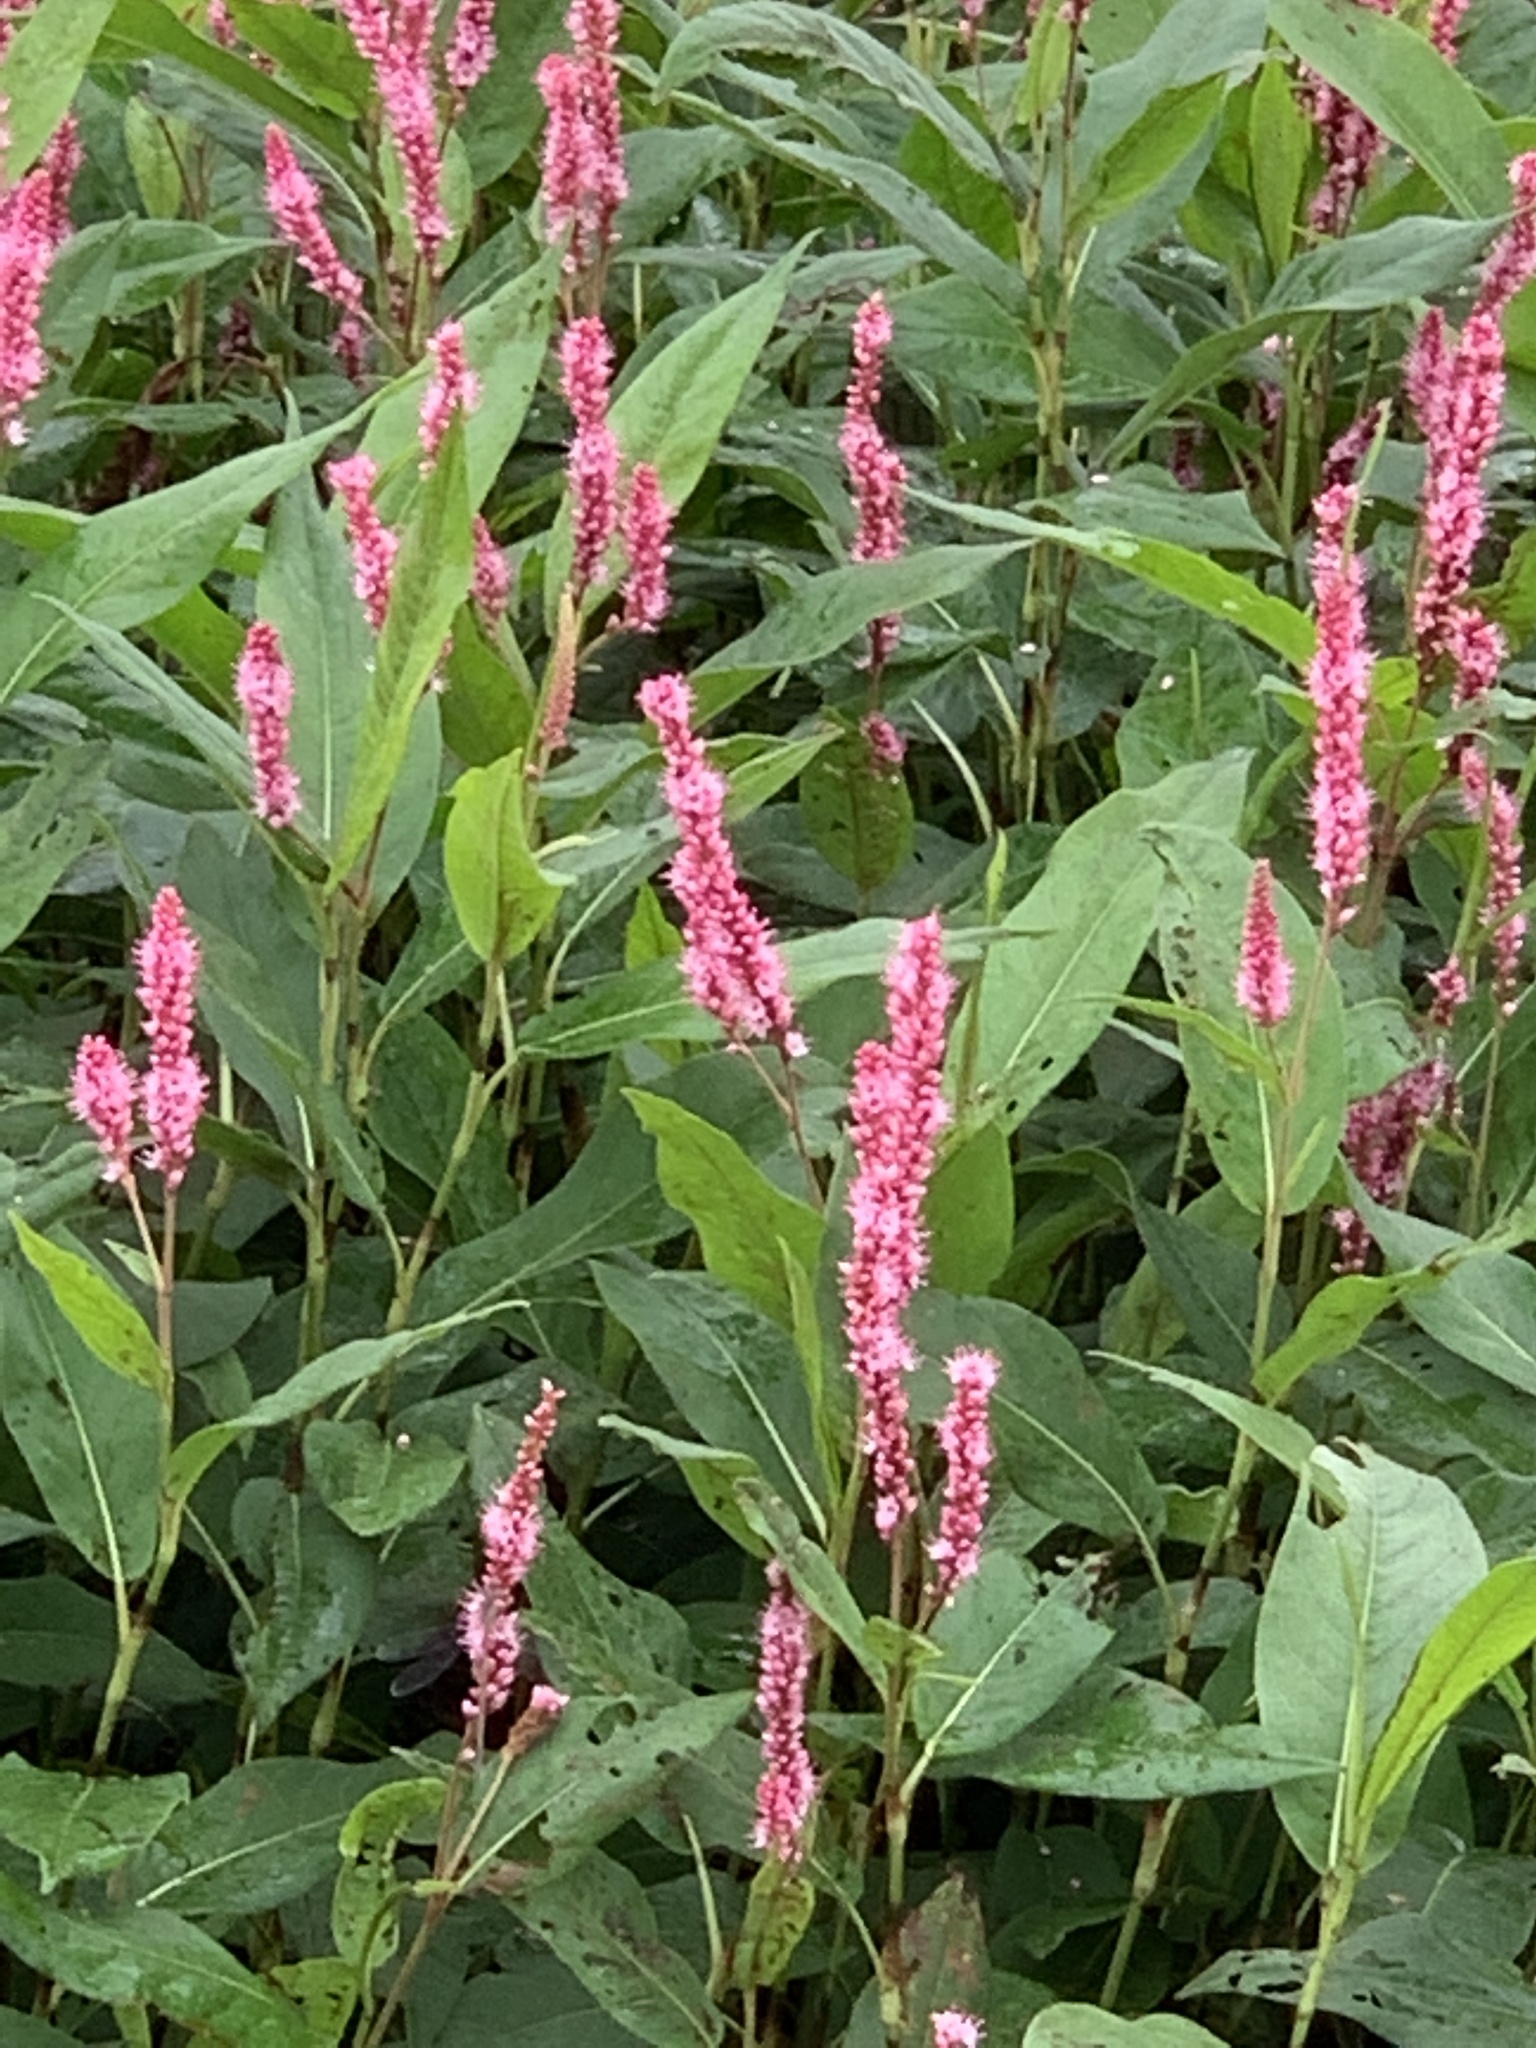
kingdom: Plantae
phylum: Tracheophyta
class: Magnoliopsida
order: Caryophyllales
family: Polygonaceae
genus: Persicaria
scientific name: Persicaria amphibia
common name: Amphibious bistort
